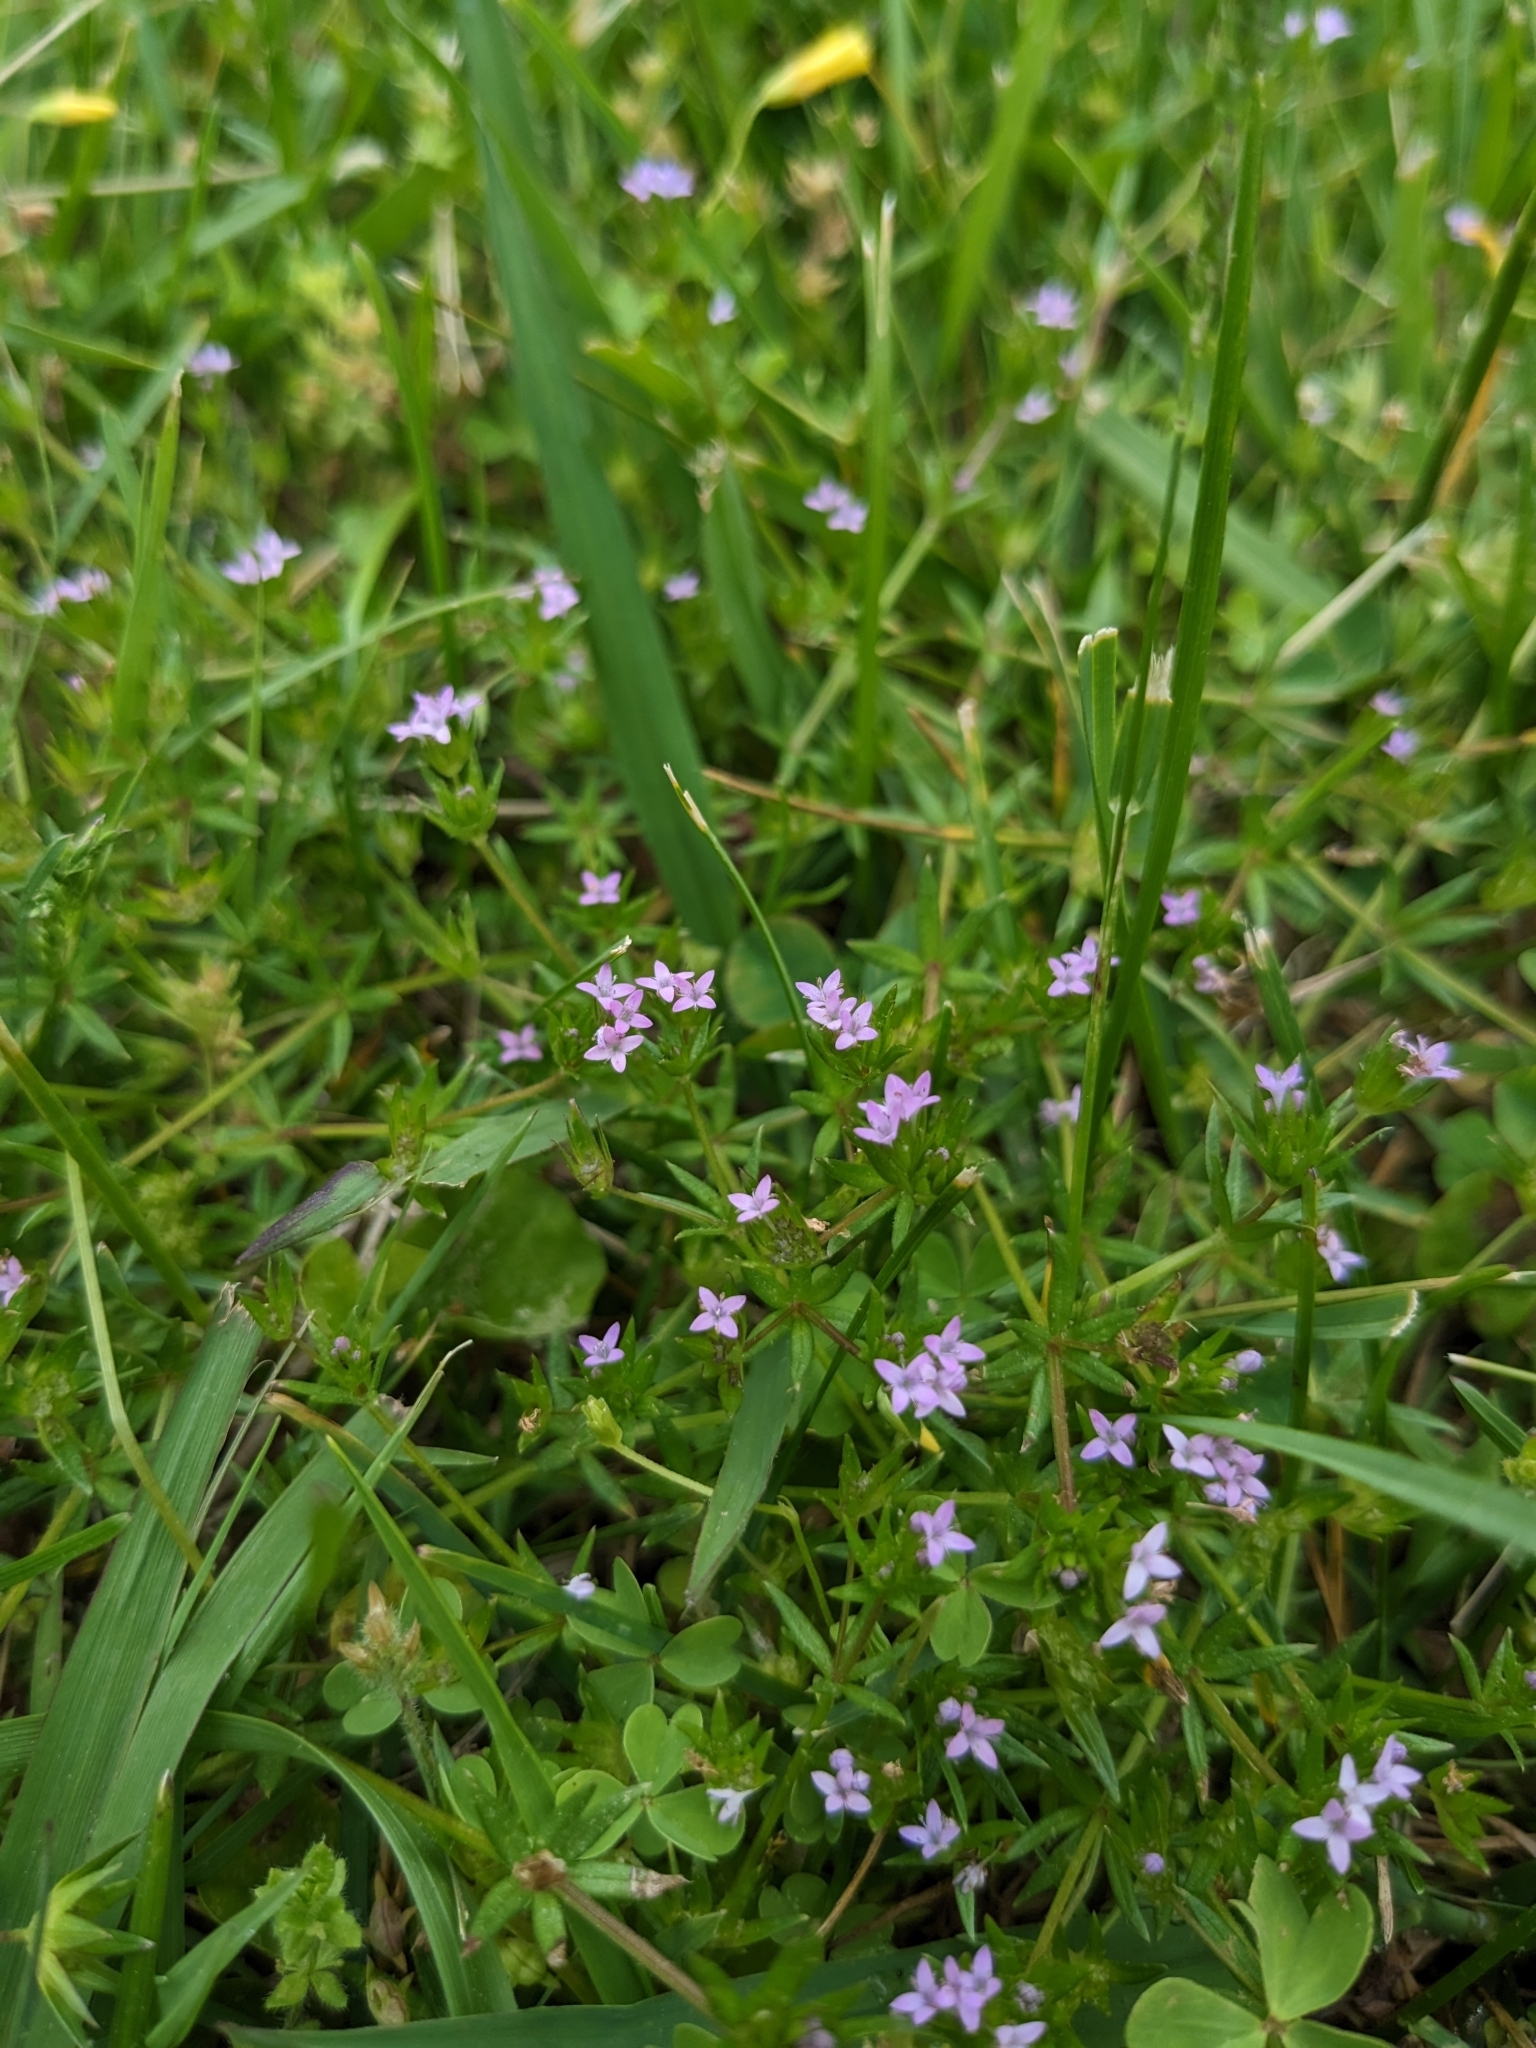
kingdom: Plantae
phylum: Tracheophyta
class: Magnoliopsida
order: Gentianales
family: Rubiaceae
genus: Sherardia
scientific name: Sherardia arvensis
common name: Field madder
